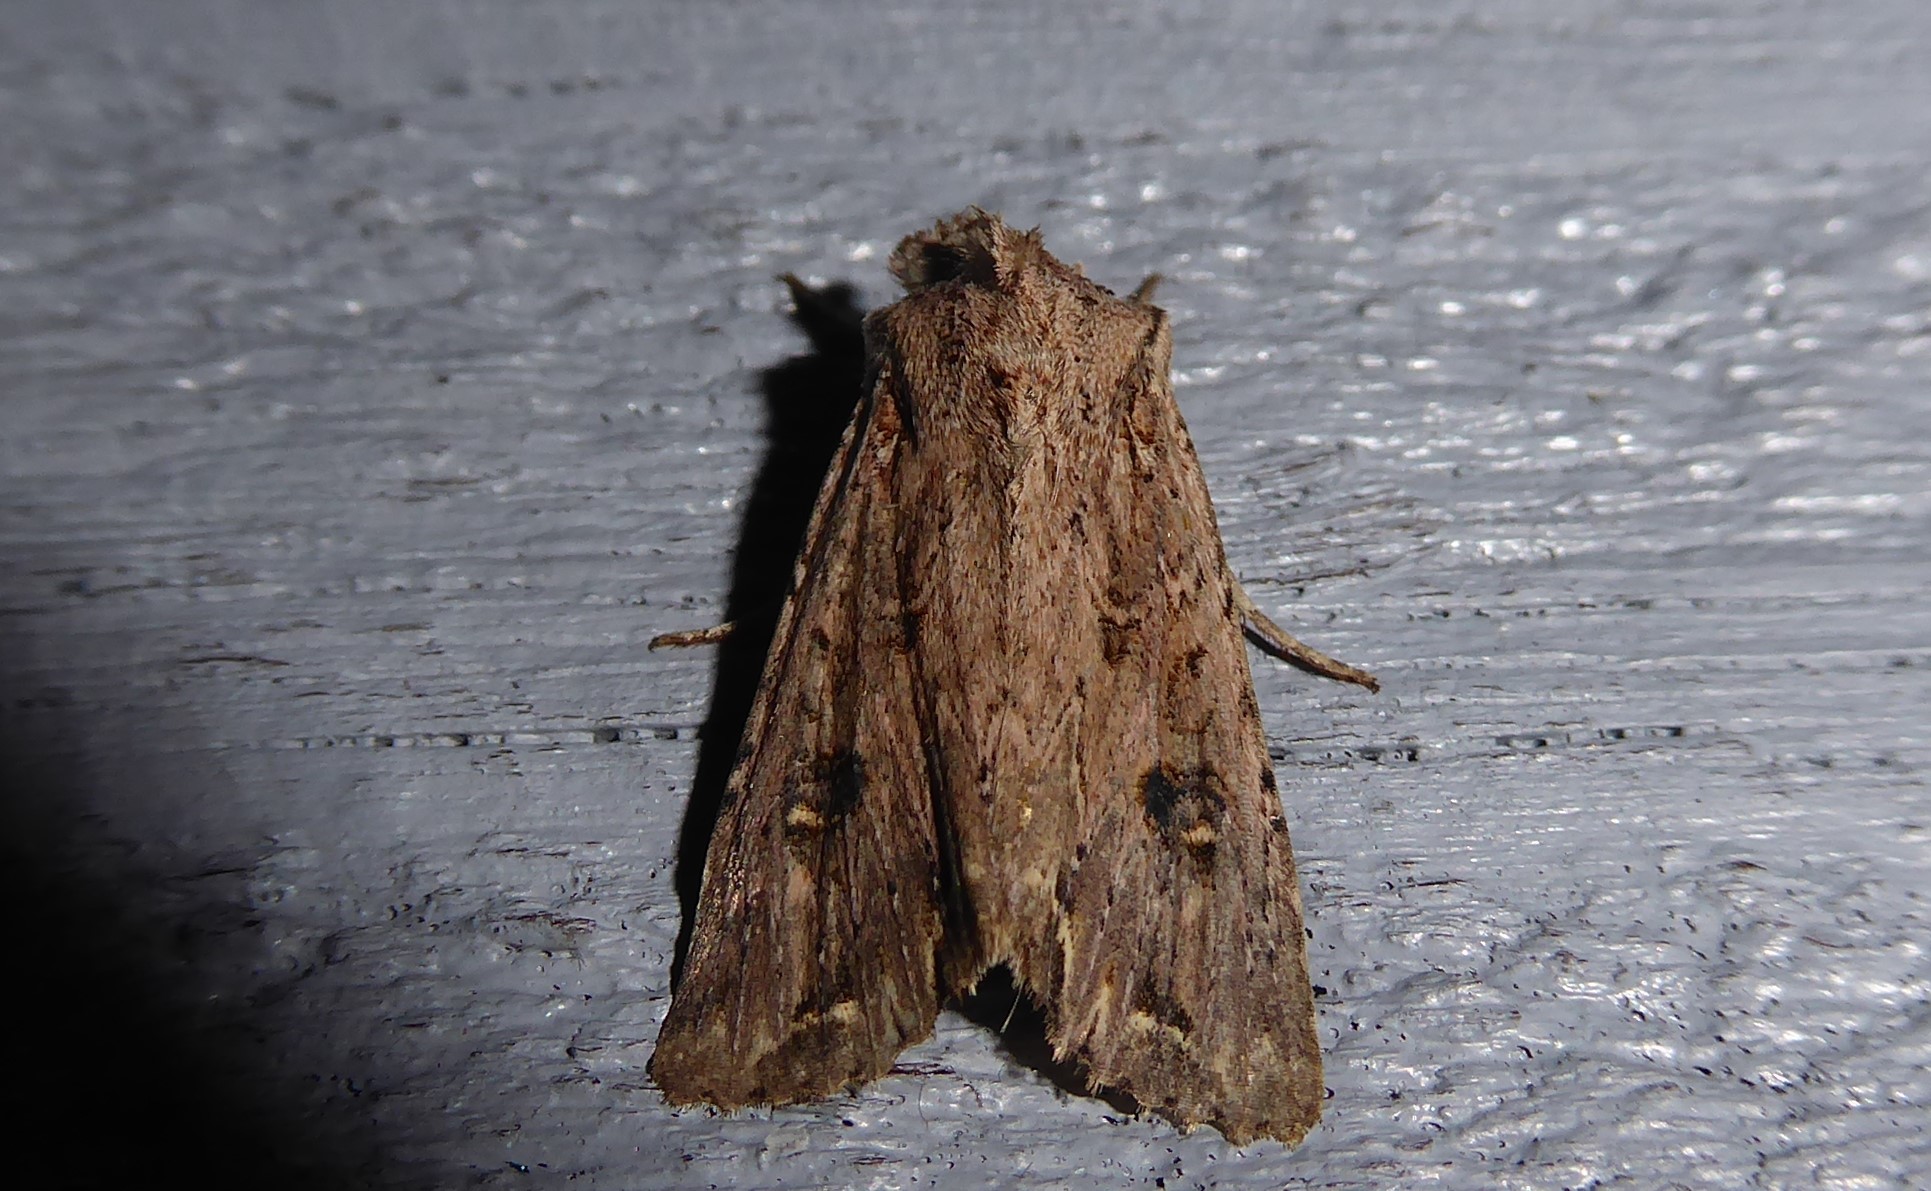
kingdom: Animalia
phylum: Arthropoda
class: Insecta
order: Lepidoptera
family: Noctuidae
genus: Ichneutica
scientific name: Ichneutica lignana
